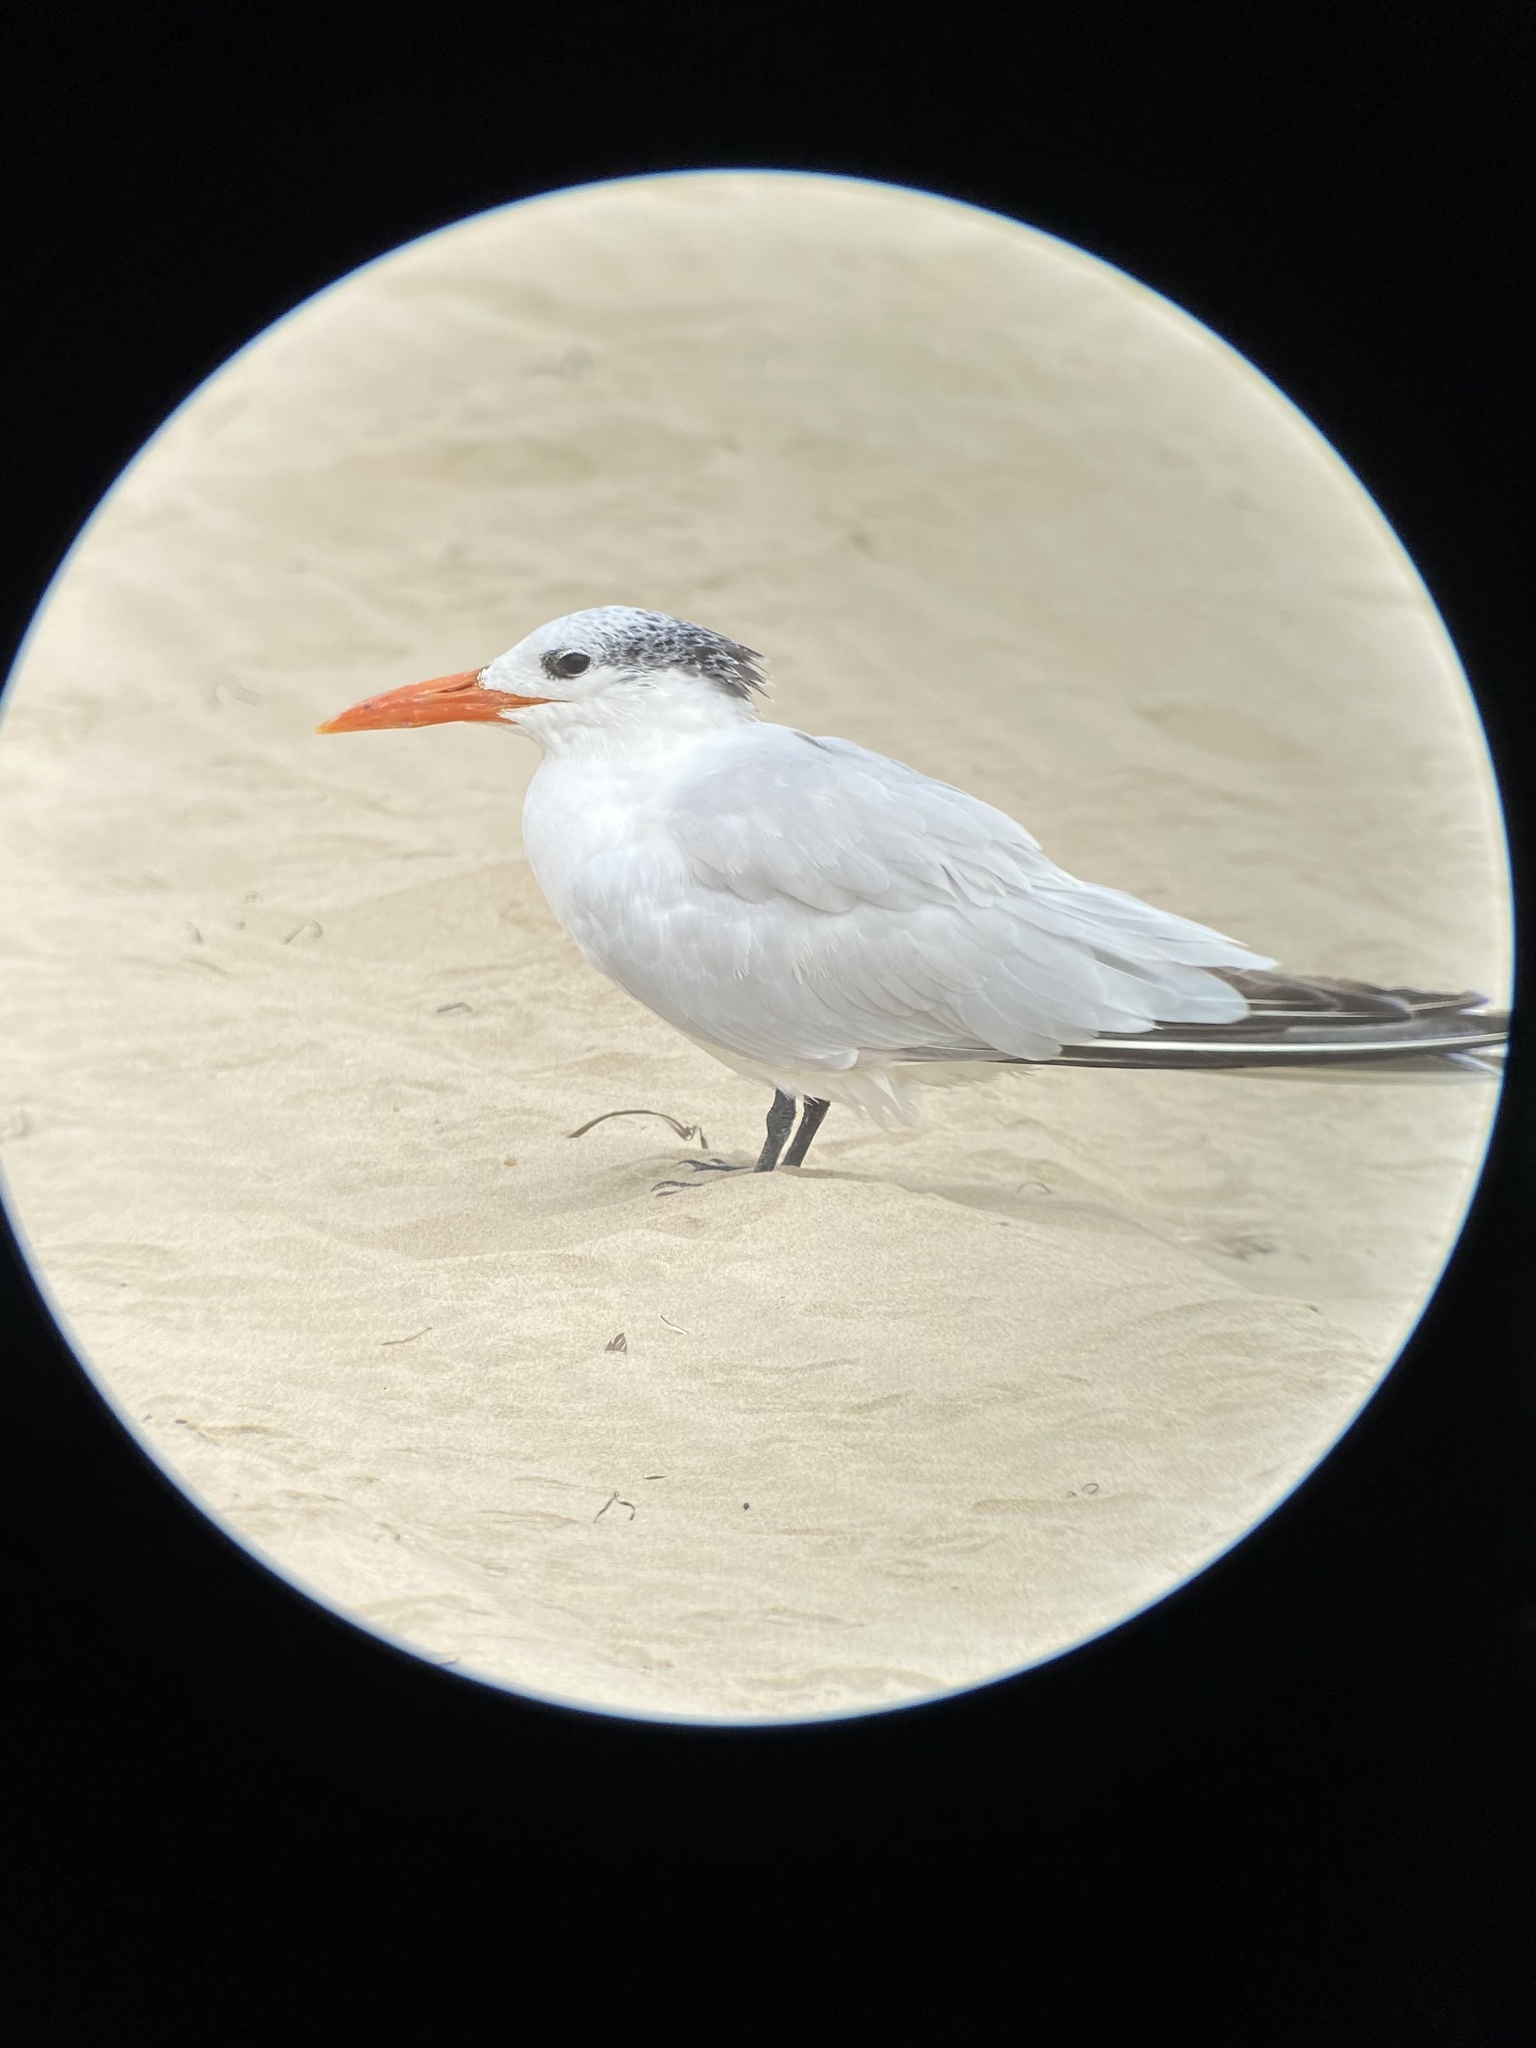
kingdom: Animalia
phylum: Chordata
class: Aves
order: Charadriiformes
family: Laridae
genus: Thalasseus
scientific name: Thalasseus maximus
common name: Royal tern
